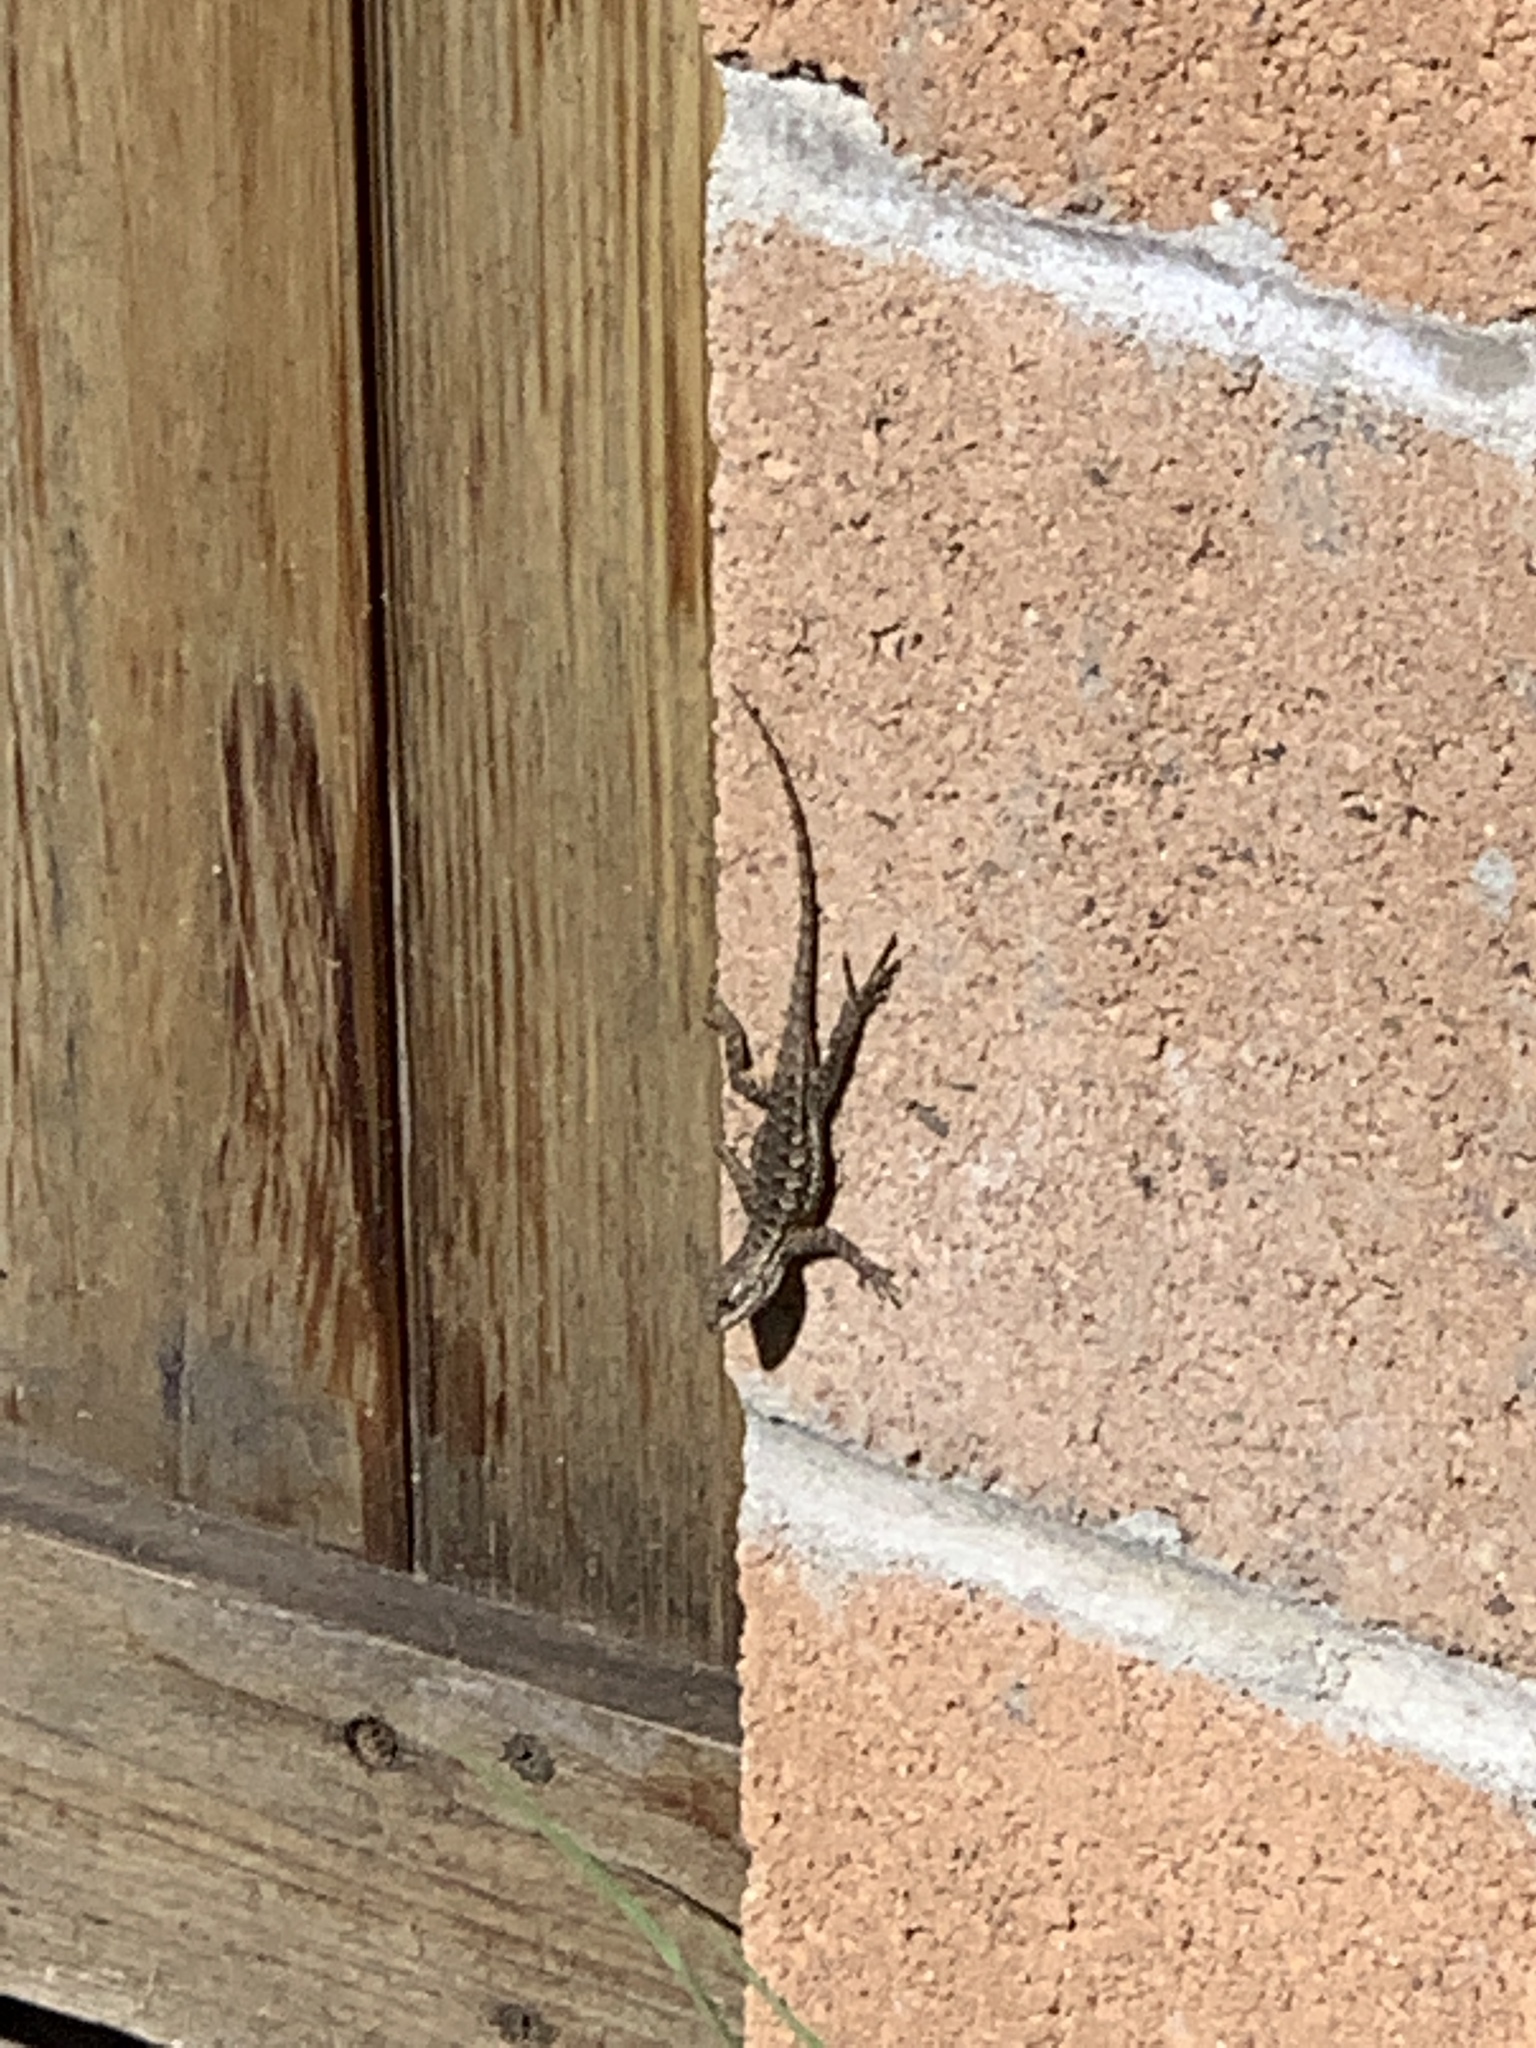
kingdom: Animalia
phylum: Chordata
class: Squamata
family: Phrynosomatidae
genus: Sceloporus
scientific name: Sceloporus occidentalis
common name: Western fence lizard
